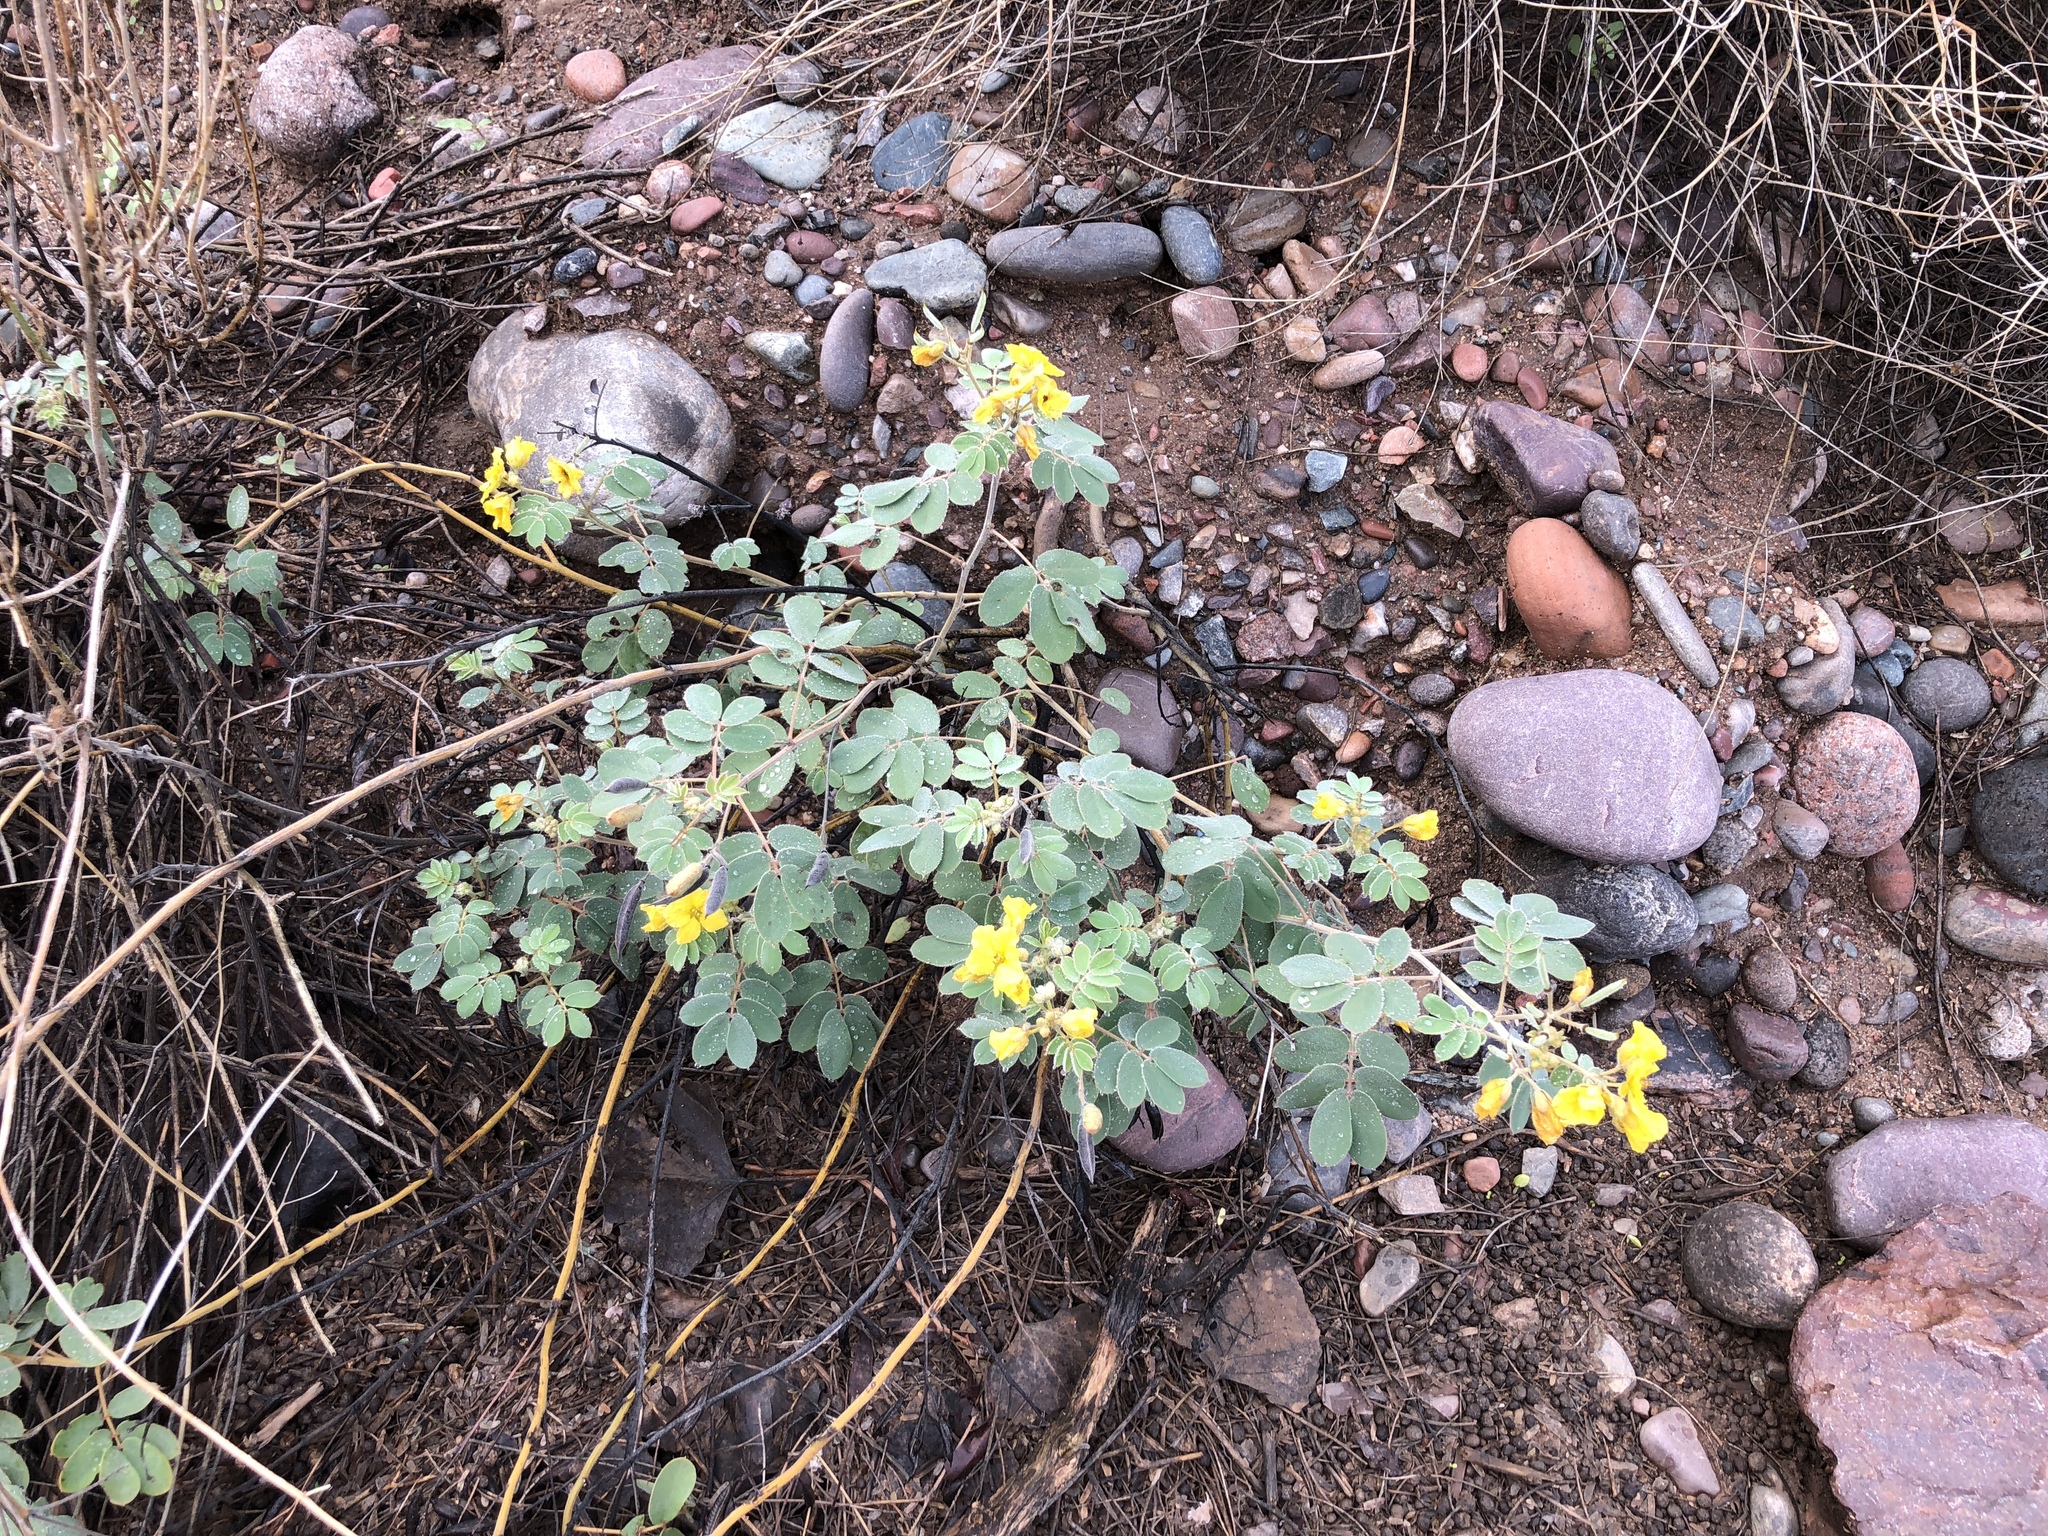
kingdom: Plantae
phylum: Tracheophyta
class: Magnoliopsida
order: Fabales
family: Fabaceae
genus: Senna
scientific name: Senna covesii
